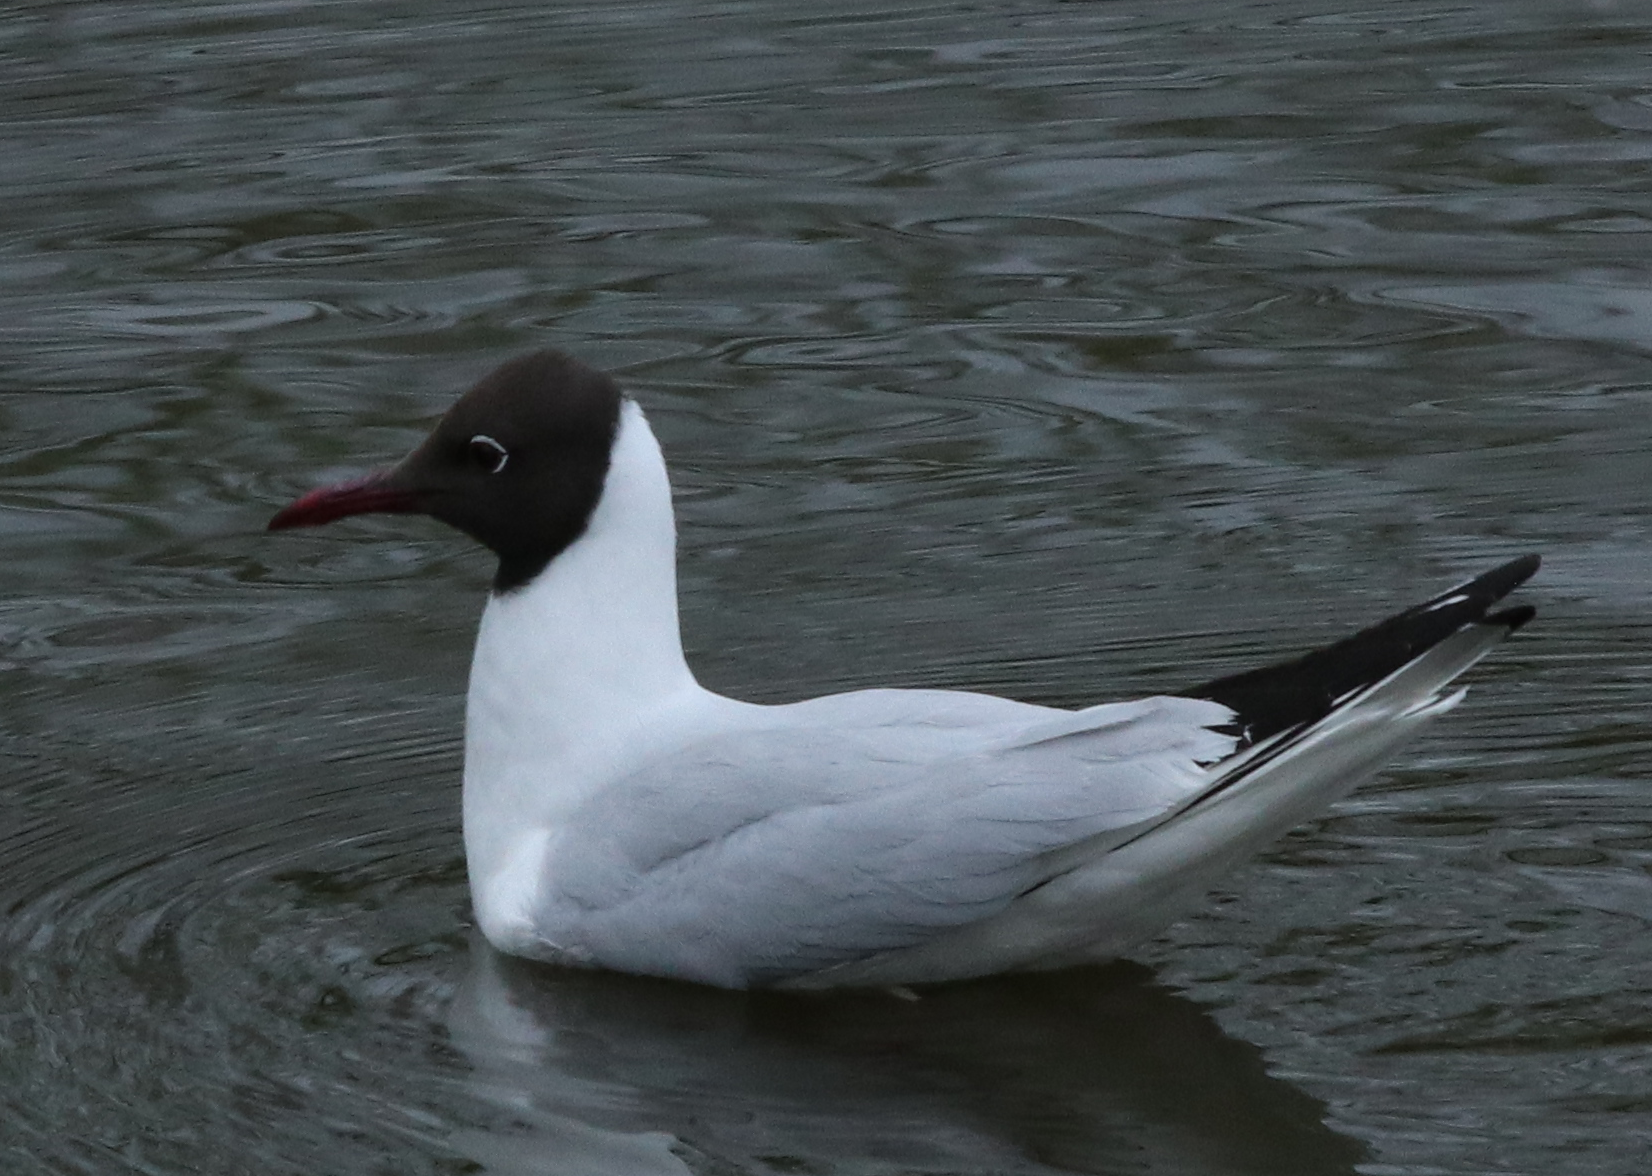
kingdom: Animalia
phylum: Chordata
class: Aves
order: Charadriiformes
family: Laridae
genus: Chroicocephalus
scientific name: Chroicocephalus ridibundus
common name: Black-headed gull
